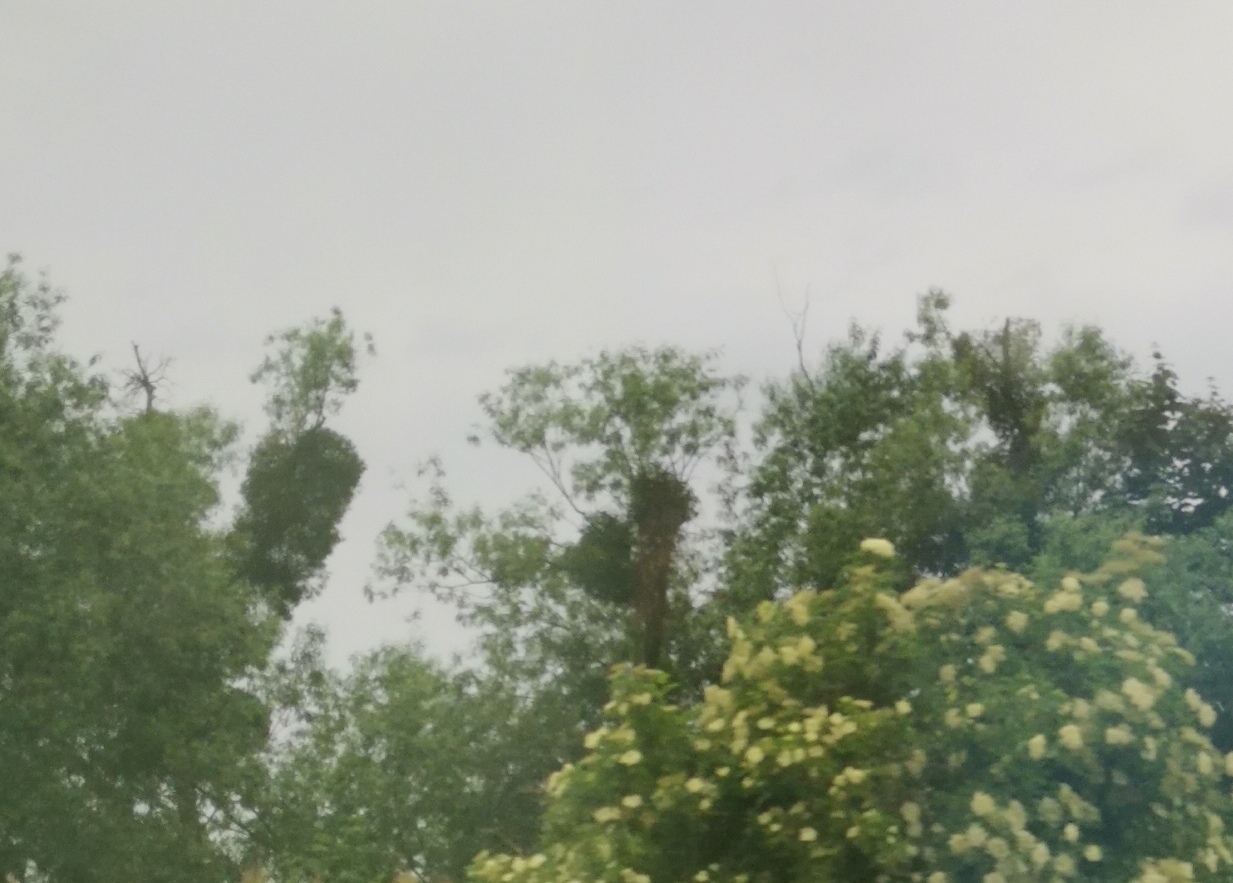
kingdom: Plantae
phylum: Tracheophyta
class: Magnoliopsida
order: Santalales
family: Viscaceae
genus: Viscum
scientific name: Viscum album
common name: Mistletoe
